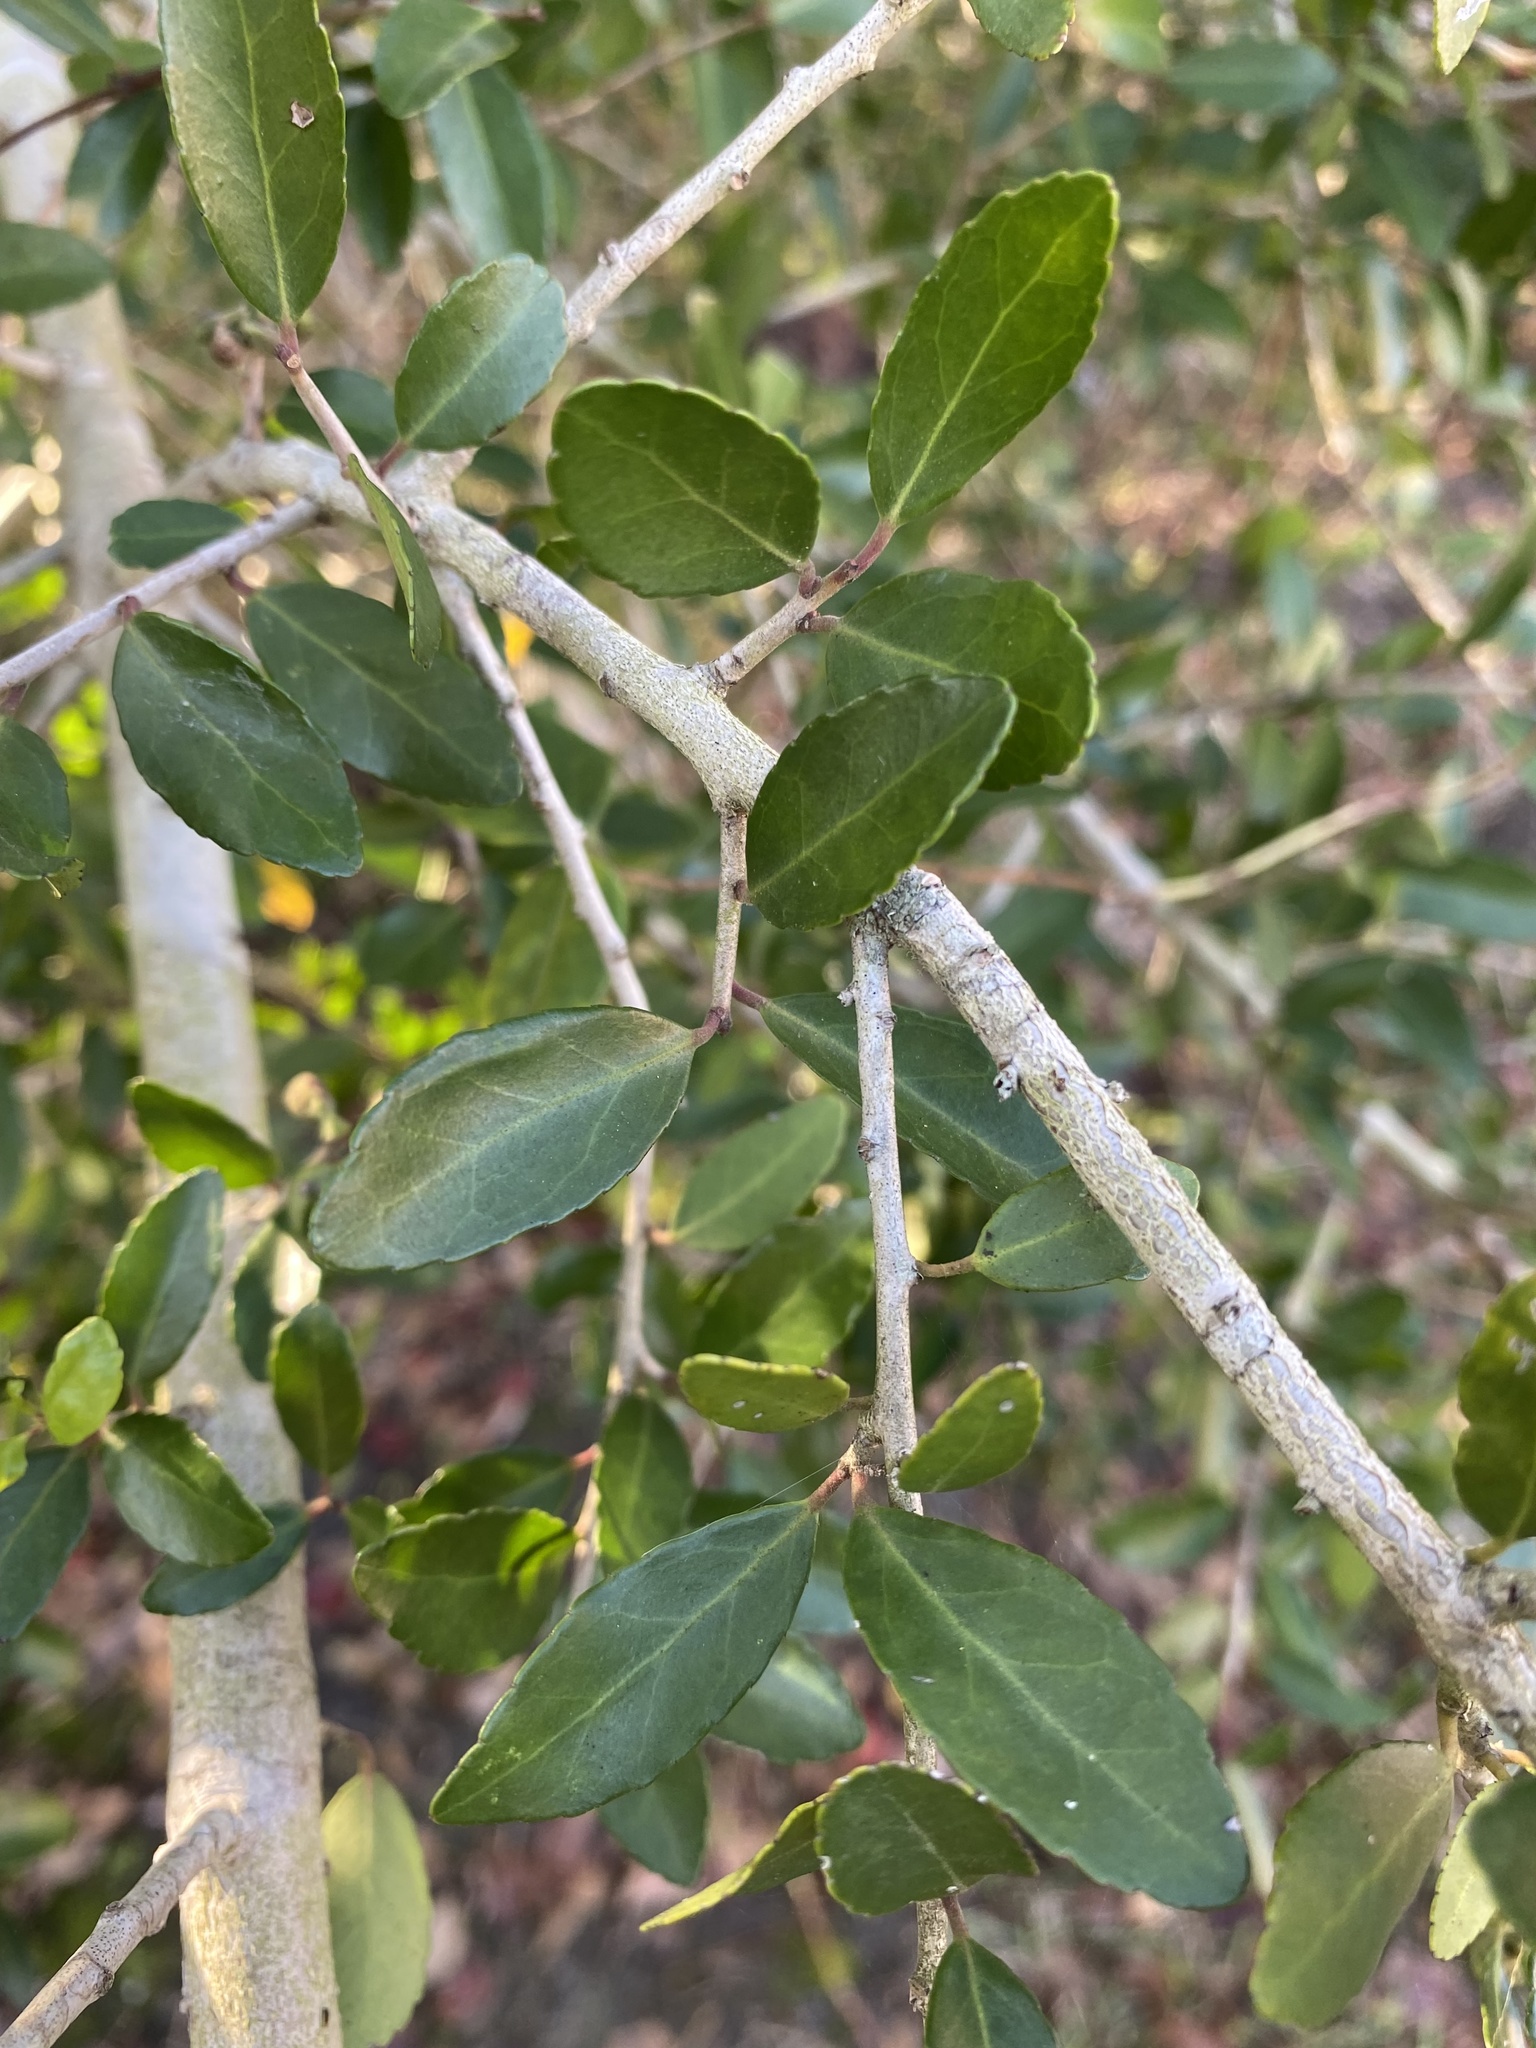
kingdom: Plantae
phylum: Tracheophyta
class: Magnoliopsida
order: Aquifoliales
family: Aquifoliaceae
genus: Ilex
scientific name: Ilex vomitoria
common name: Yaupon holly
